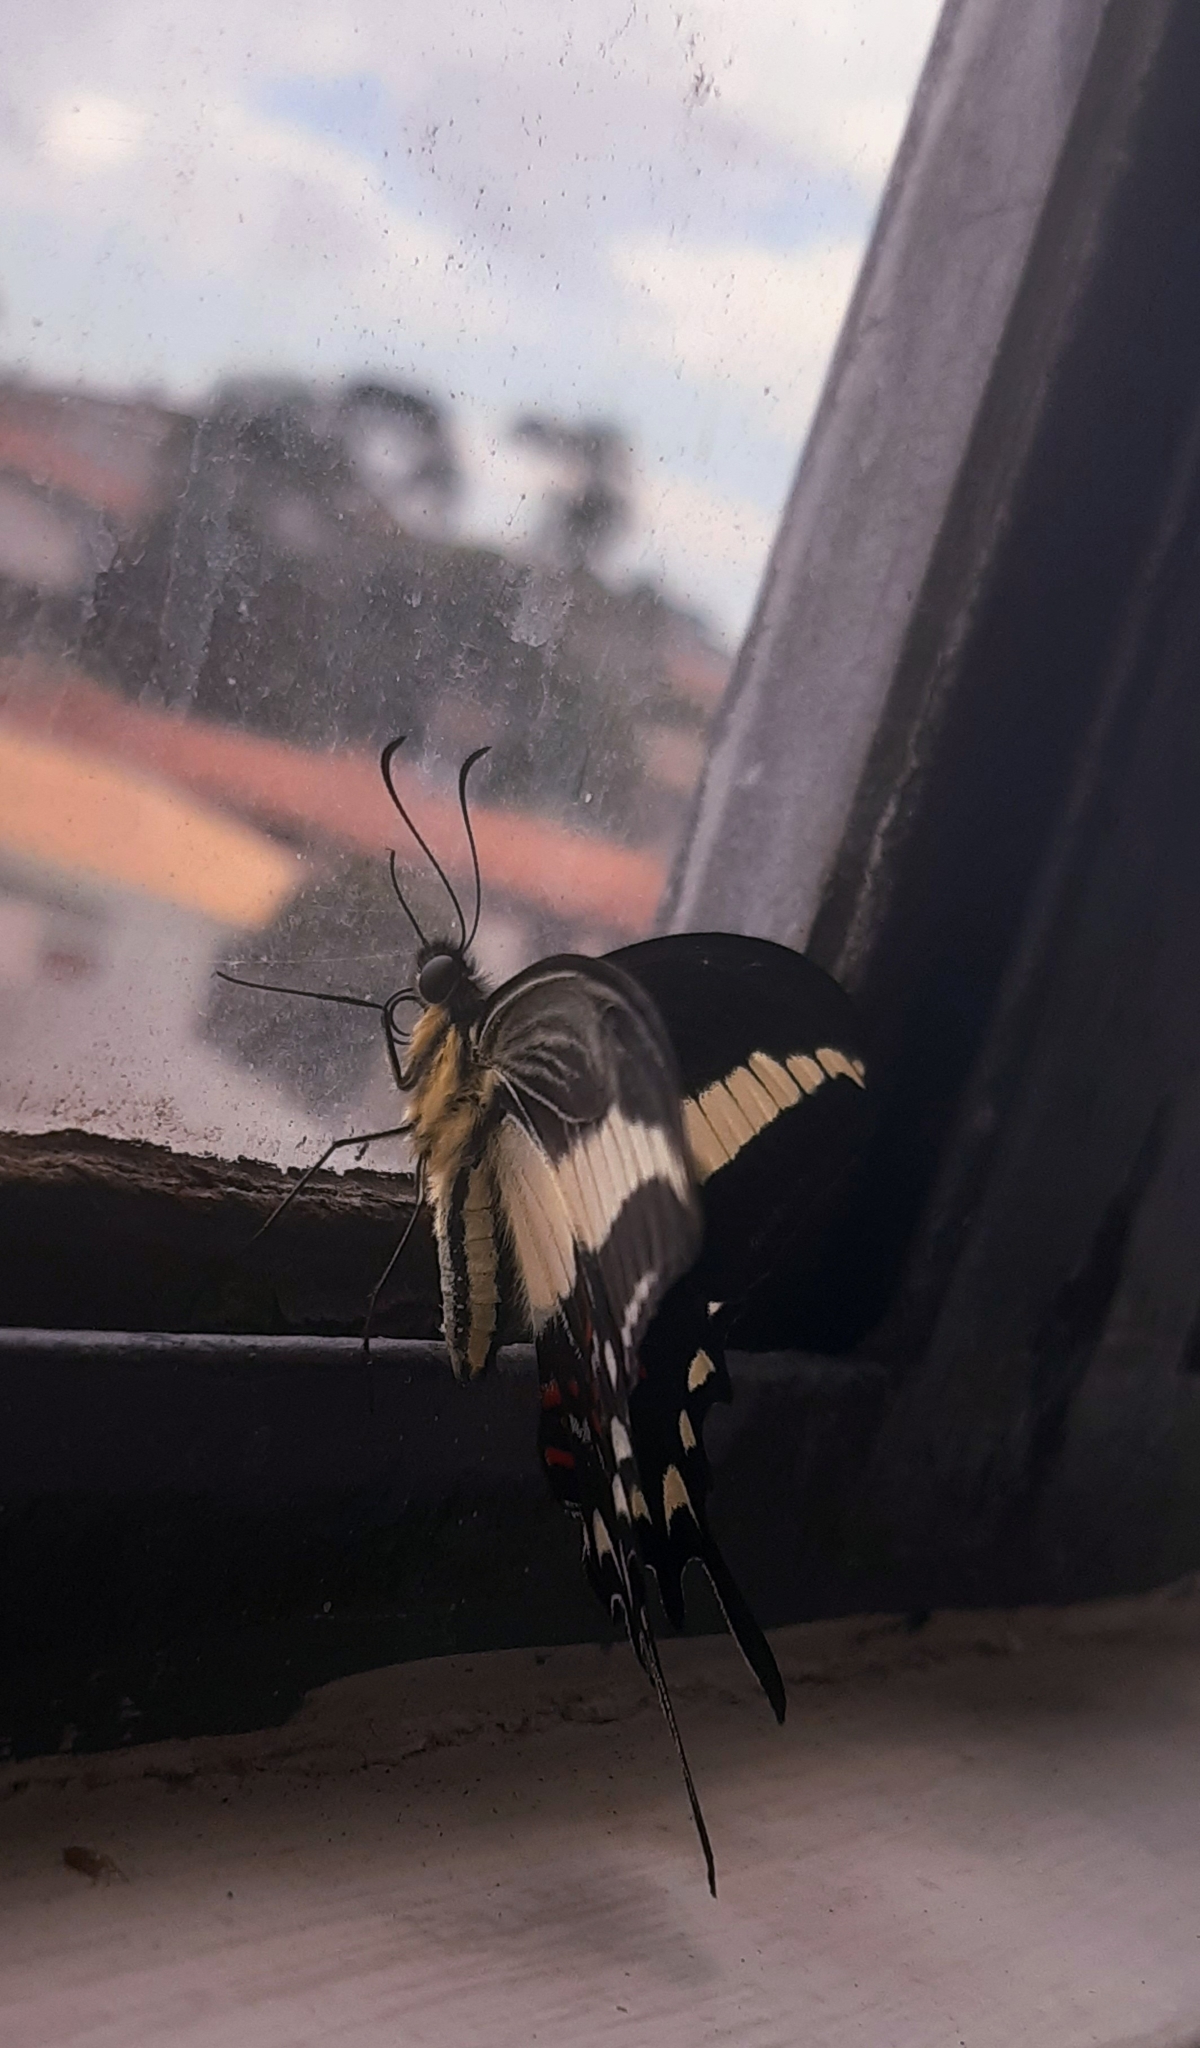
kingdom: Animalia
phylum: Arthropoda
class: Insecta
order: Lepidoptera
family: Papilionidae
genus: Heraclides
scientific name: Heraclides hectorides
